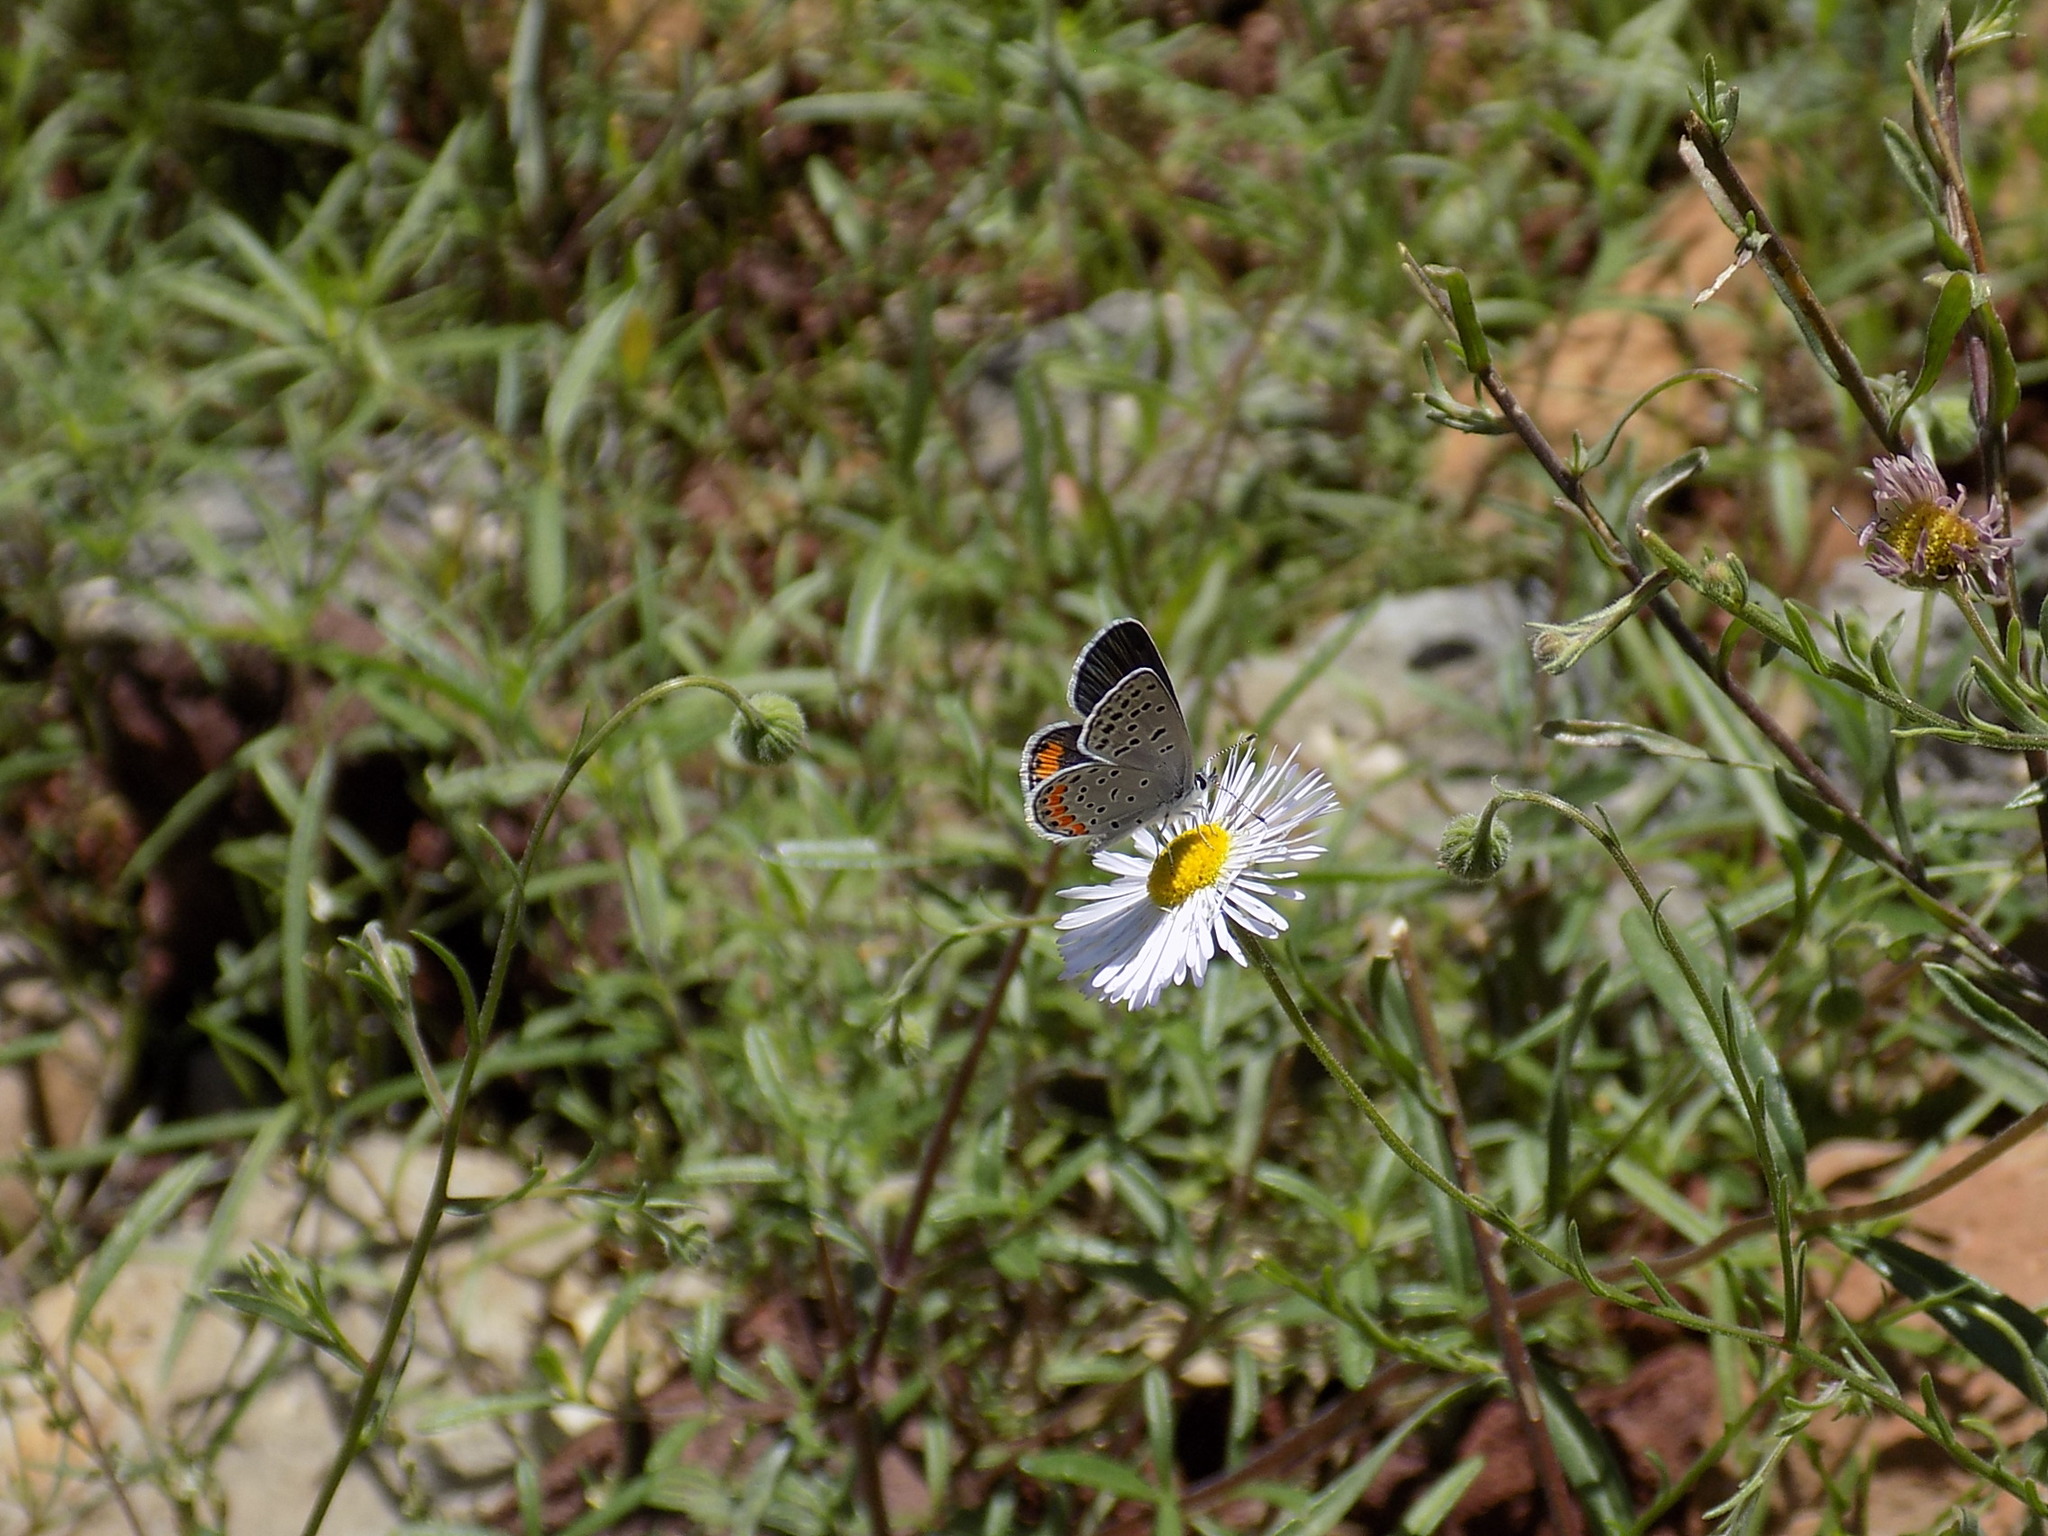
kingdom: Animalia
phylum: Arthropoda
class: Insecta
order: Lepidoptera
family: Lycaenidae
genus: Icaricia
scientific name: Icaricia lupini
